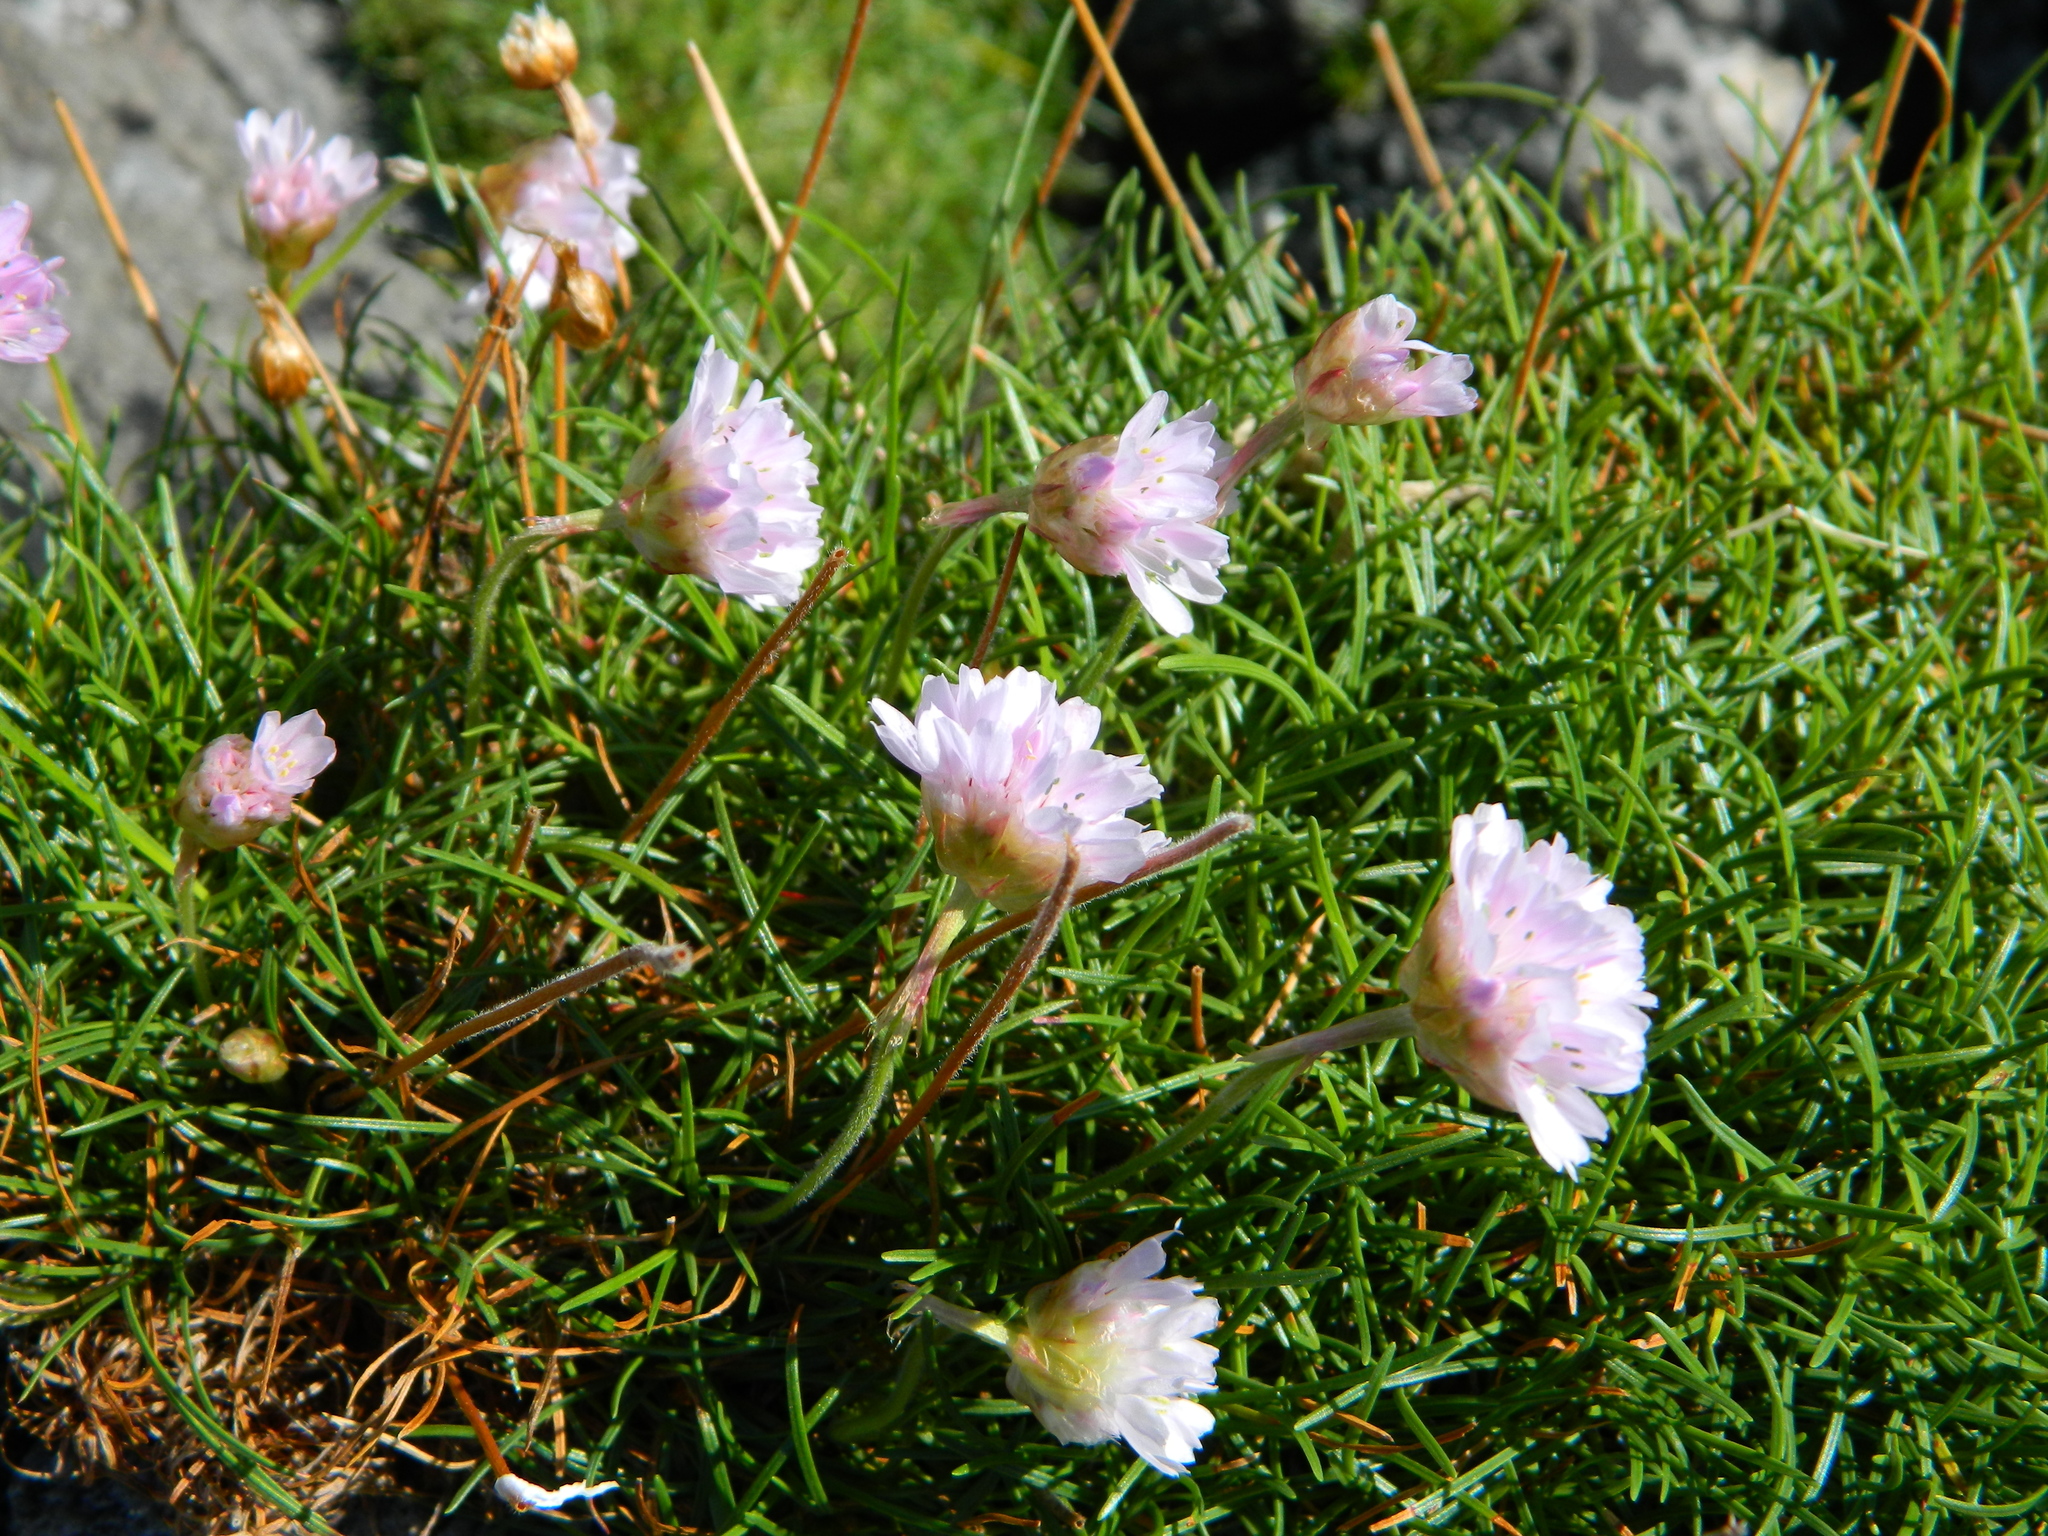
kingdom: Plantae
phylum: Tracheophyta
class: Magnoliopsida
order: Caryophyllales
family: Plumbaginaceae
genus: Armeria
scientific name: Armeria maritima
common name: Thrift
